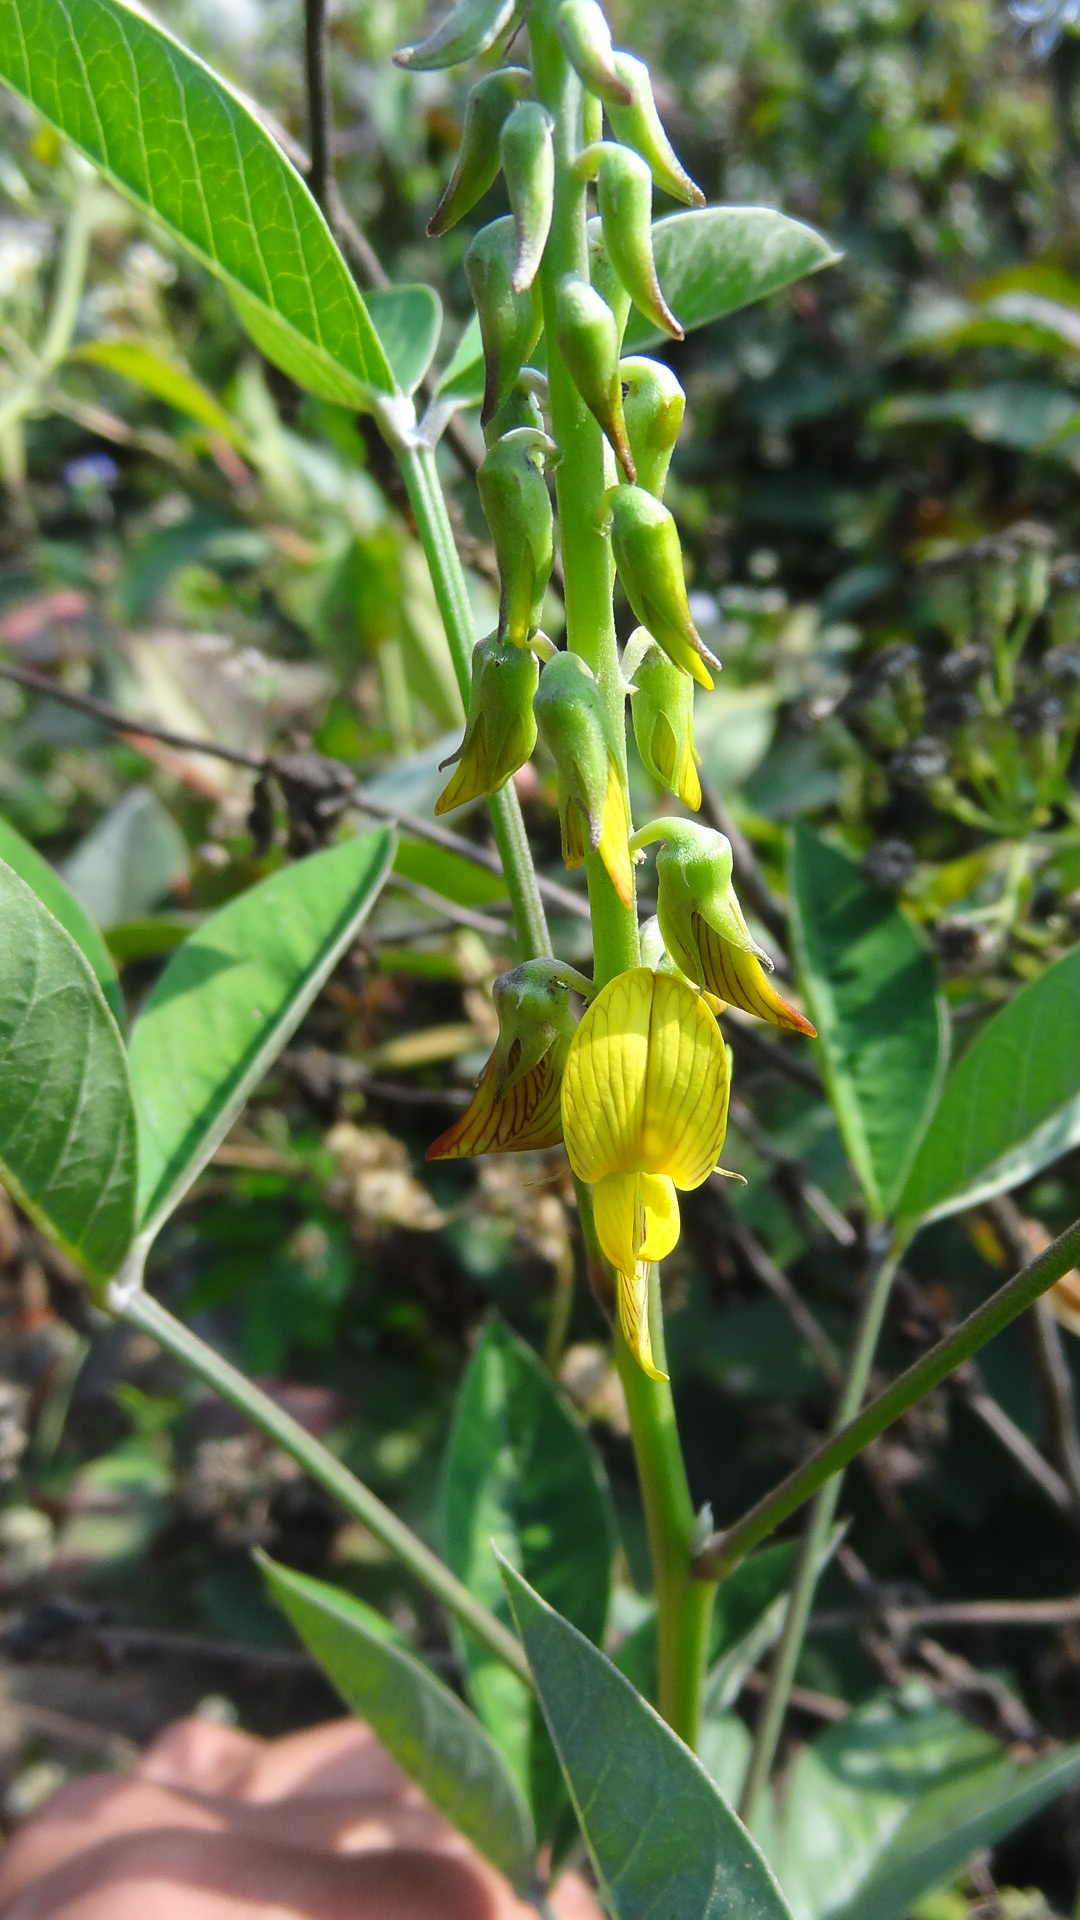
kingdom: Plantae
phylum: Tracheophyta
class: Magnoliopsida
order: Fabales
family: Fabaceae
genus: Crotalaria
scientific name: Crotalaria pallida
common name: Smooth rattlebox
